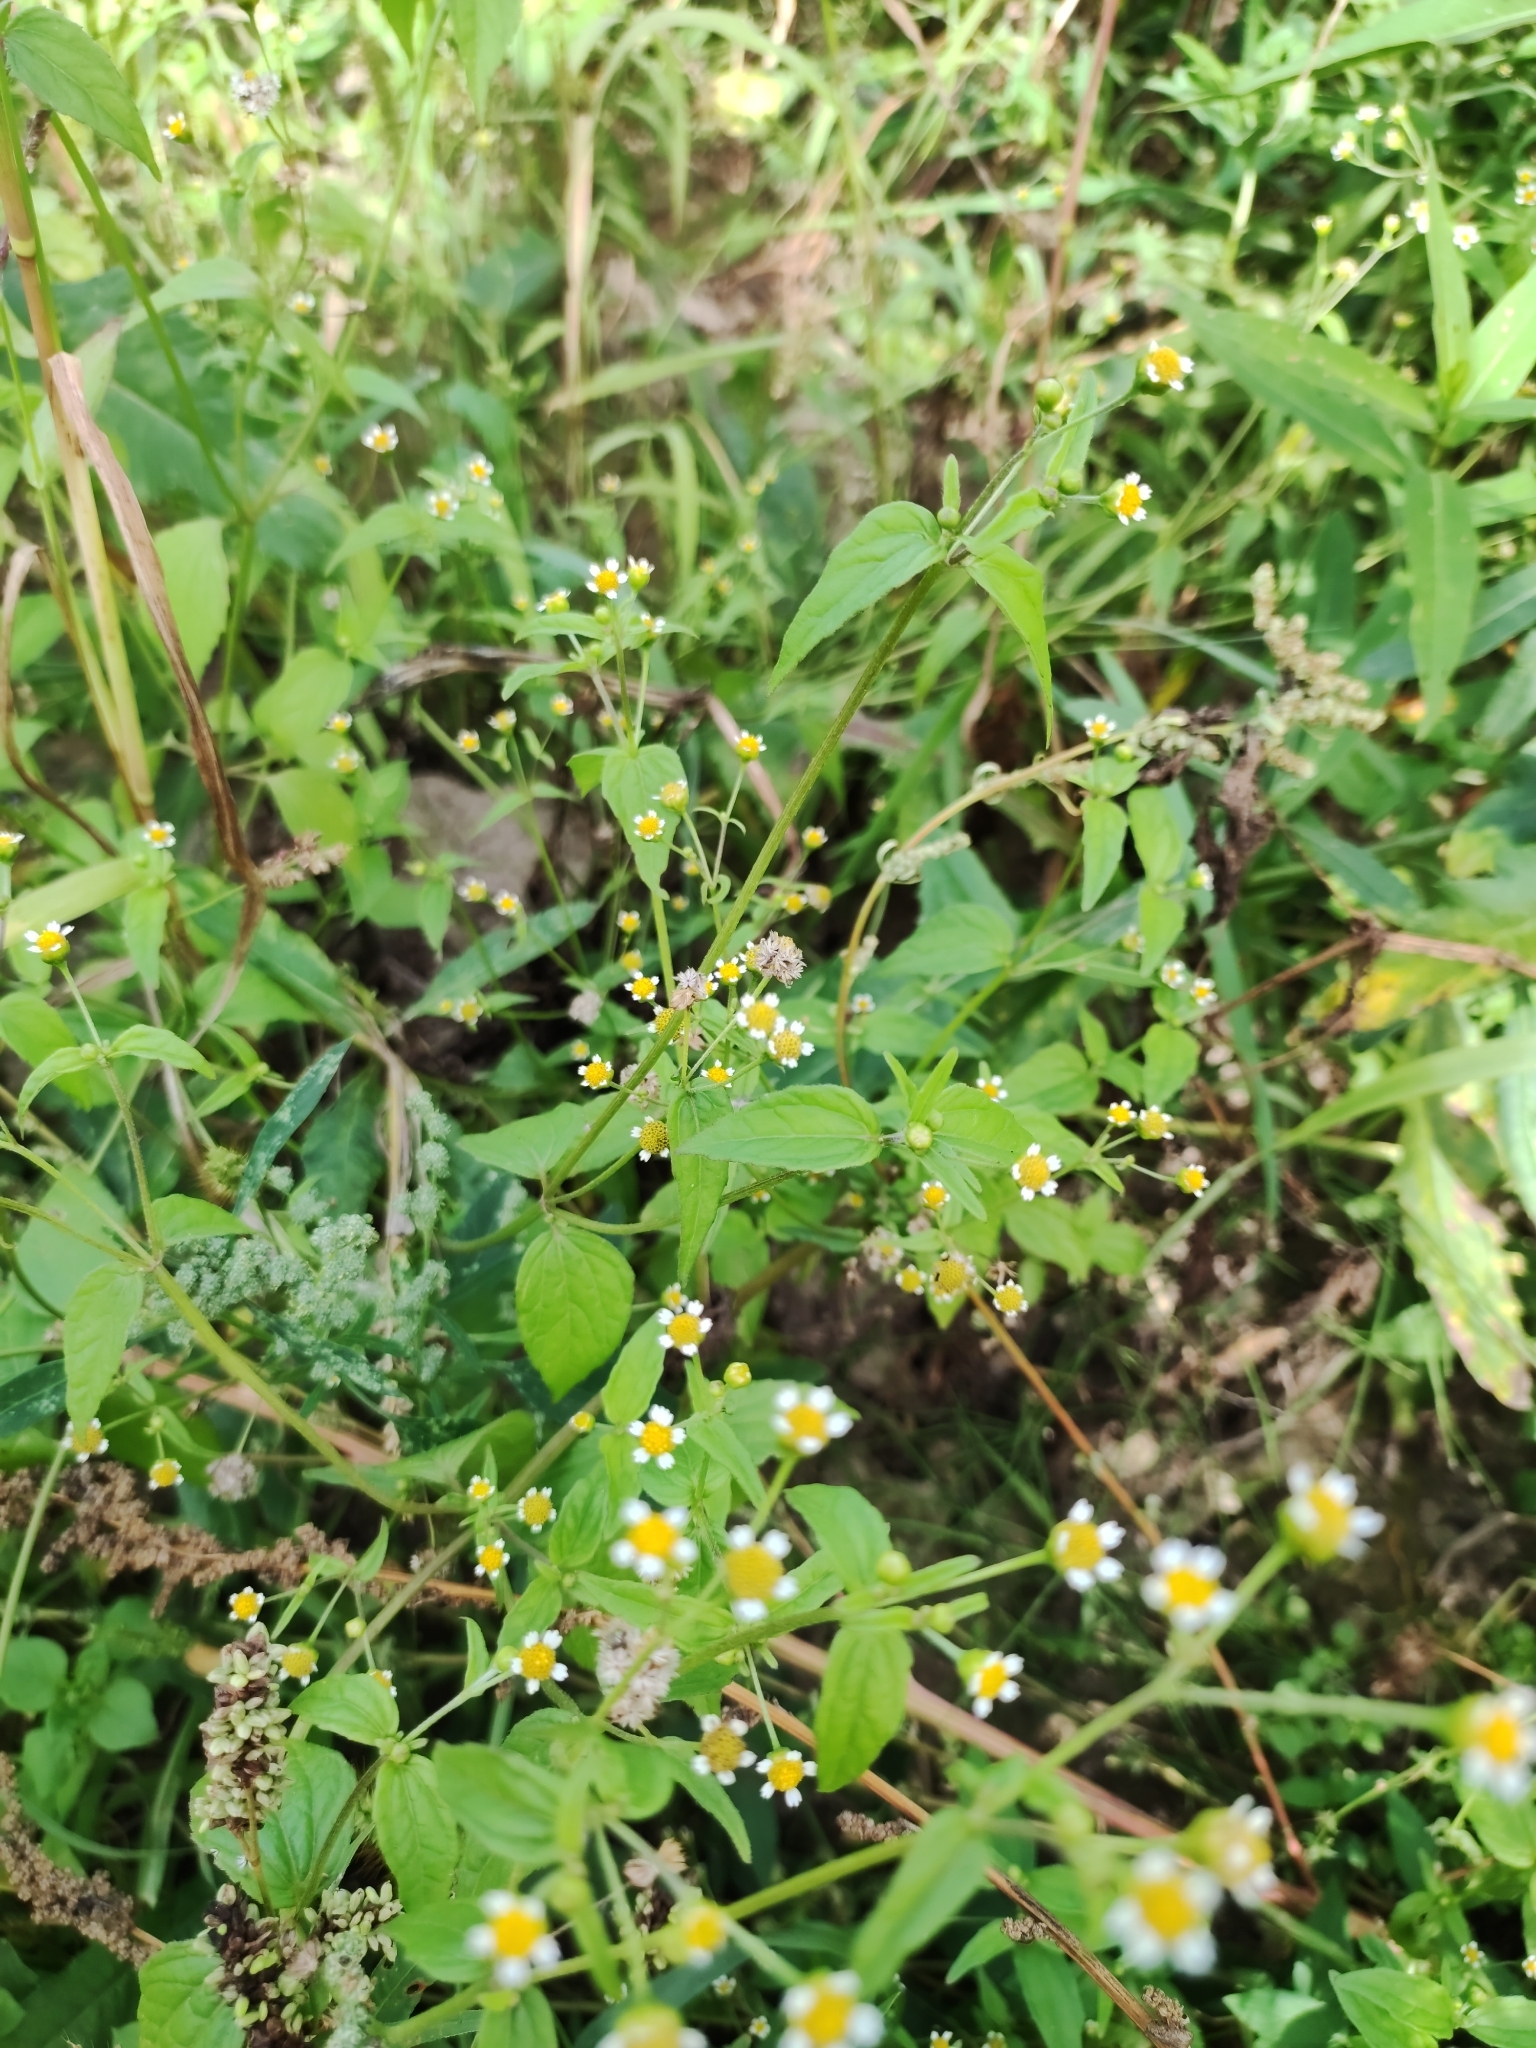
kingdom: Plantae
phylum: Tracheophyta
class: Magnoliopsida
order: Asterales
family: Asteraceae
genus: Galinsoga
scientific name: Galinsoga parviflora
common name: Gallant soldier
